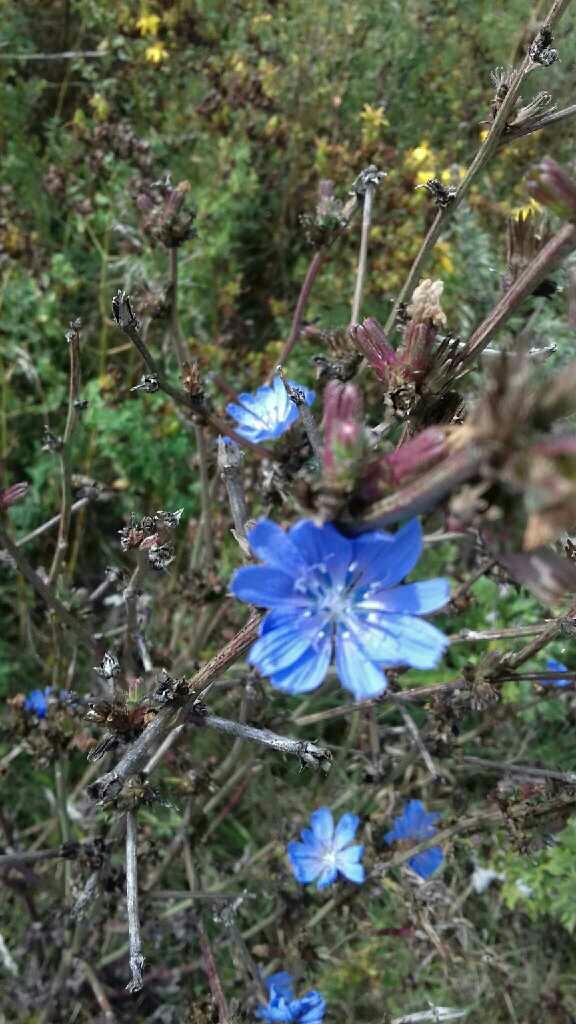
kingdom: Plantae
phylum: Tracheophyta
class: Magnoliopsida
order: Asterales
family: Asteraceae
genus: Cichorium
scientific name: Cichorium intybus
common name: Chicory
